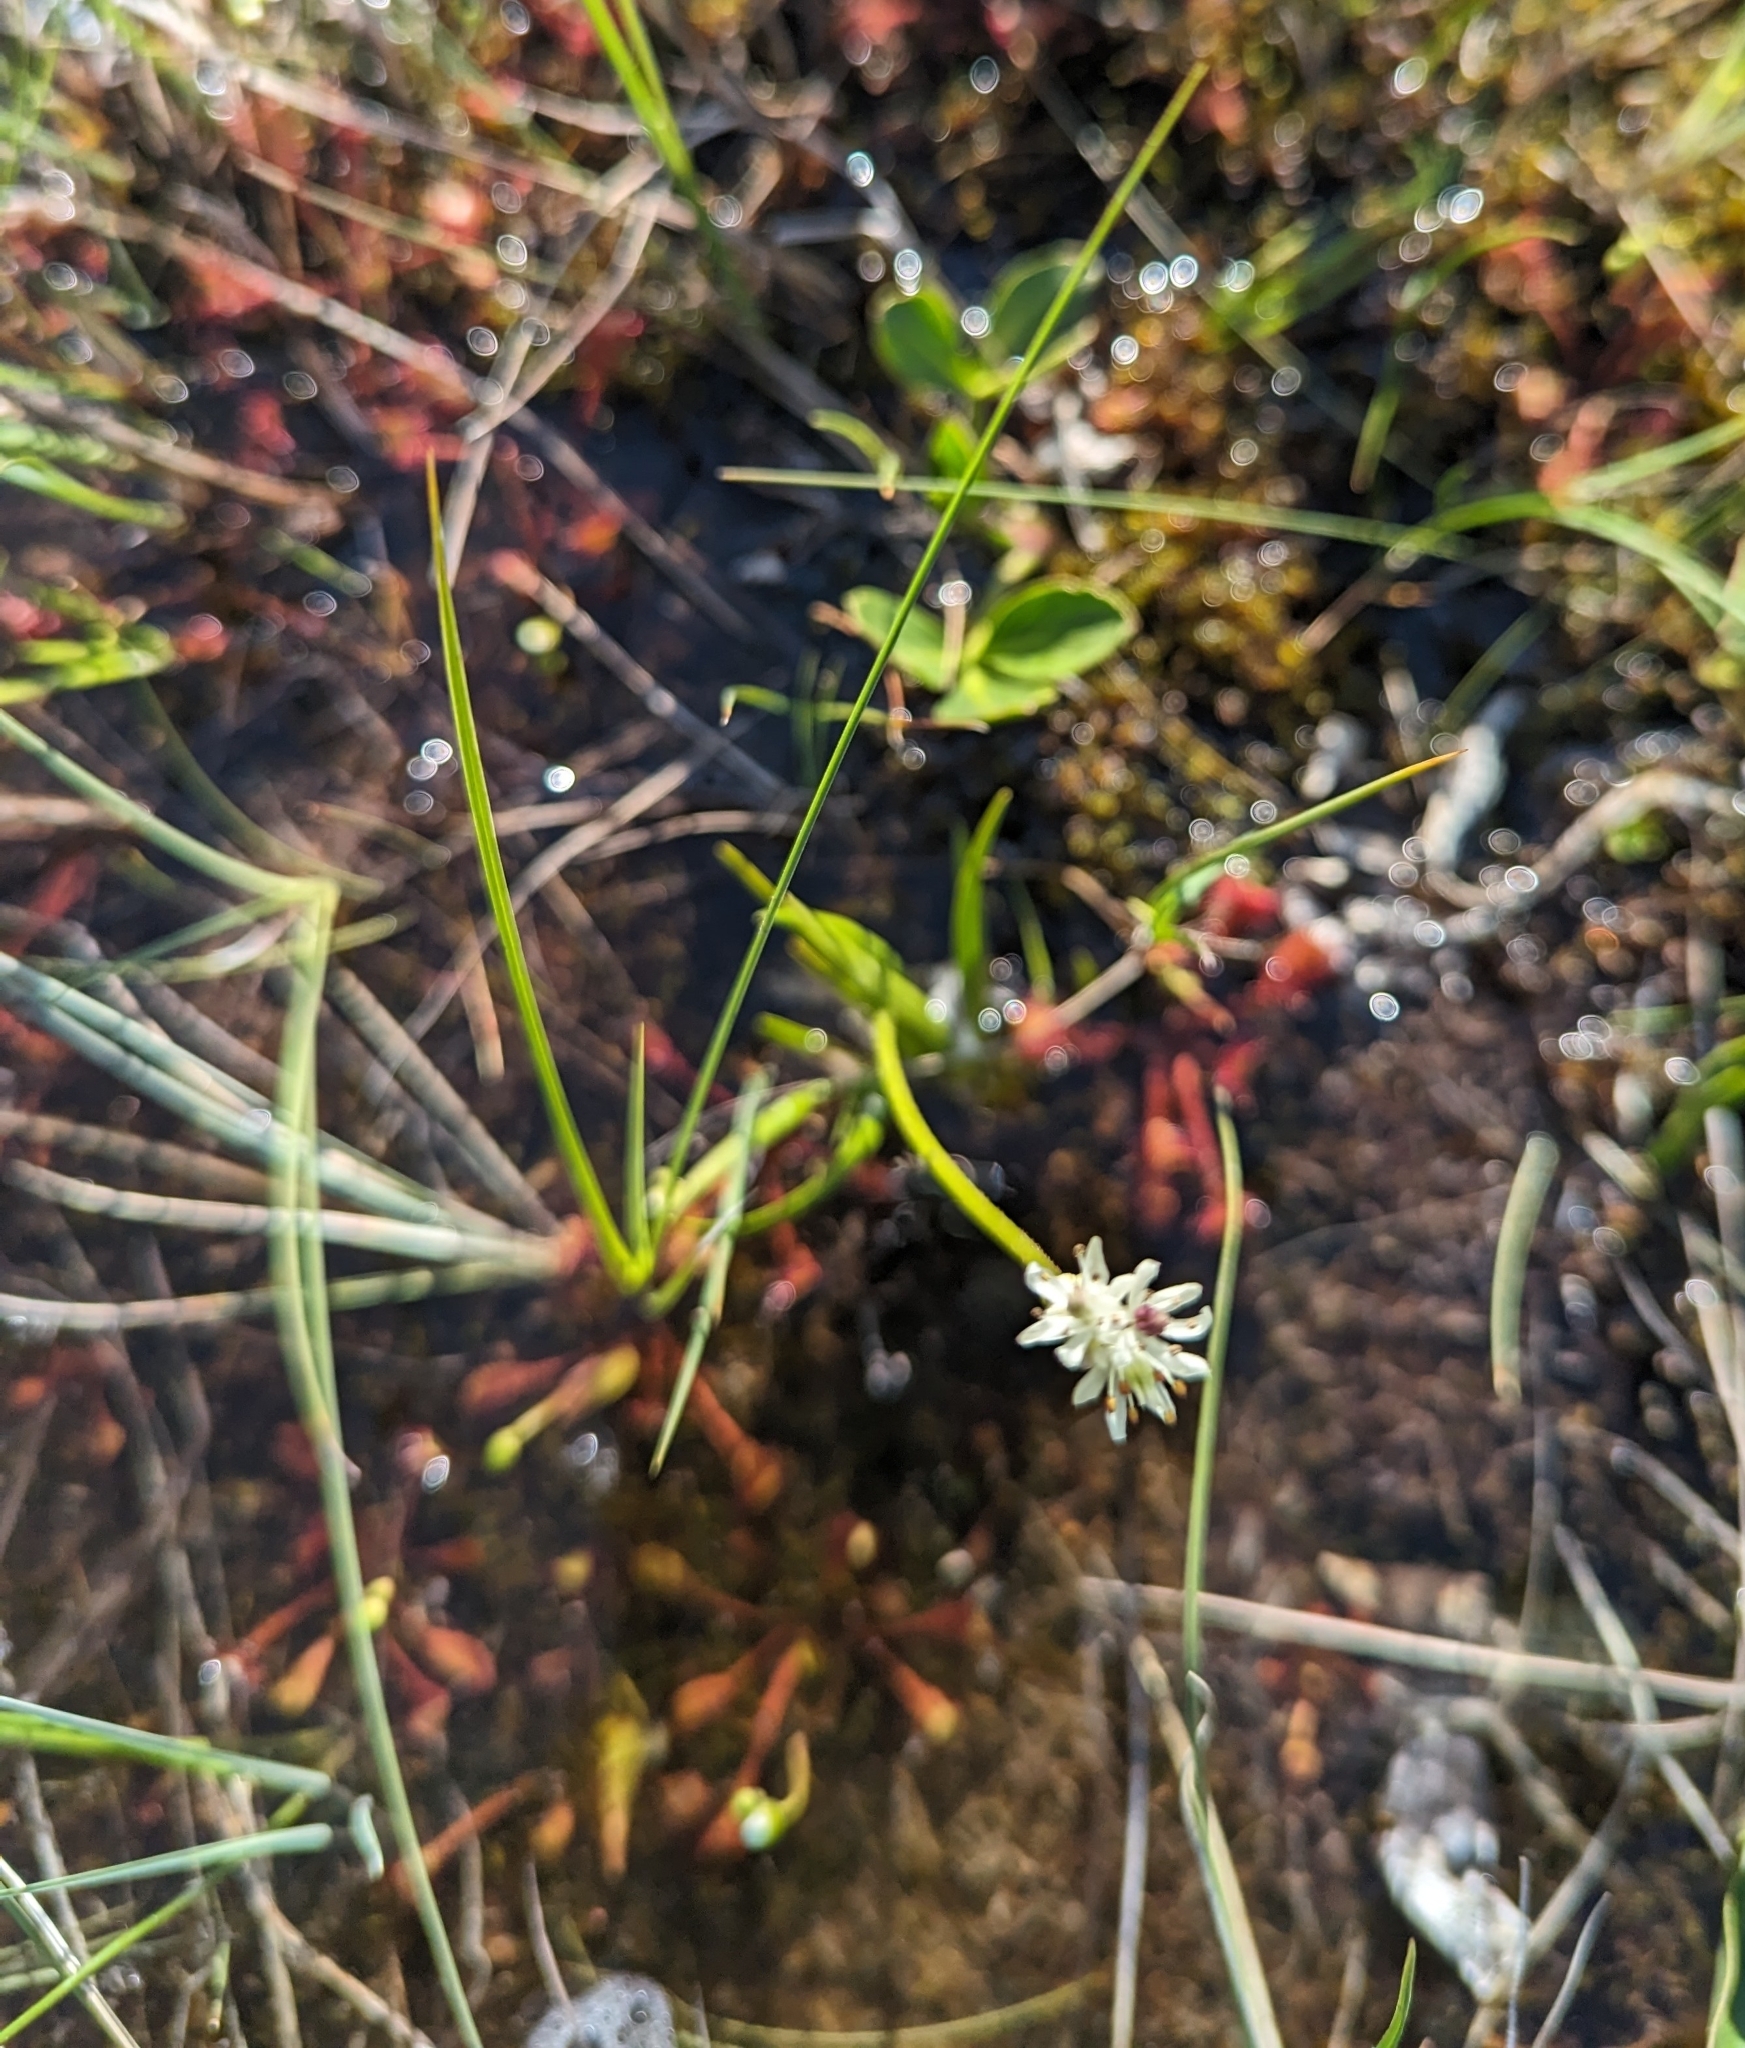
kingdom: Plantae
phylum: Tracheophyta
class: Liliopsida
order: Alismatales
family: Tofieldiaceae
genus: Triantha
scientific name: Triantha glutinosa
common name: Glutinous tofieldia
